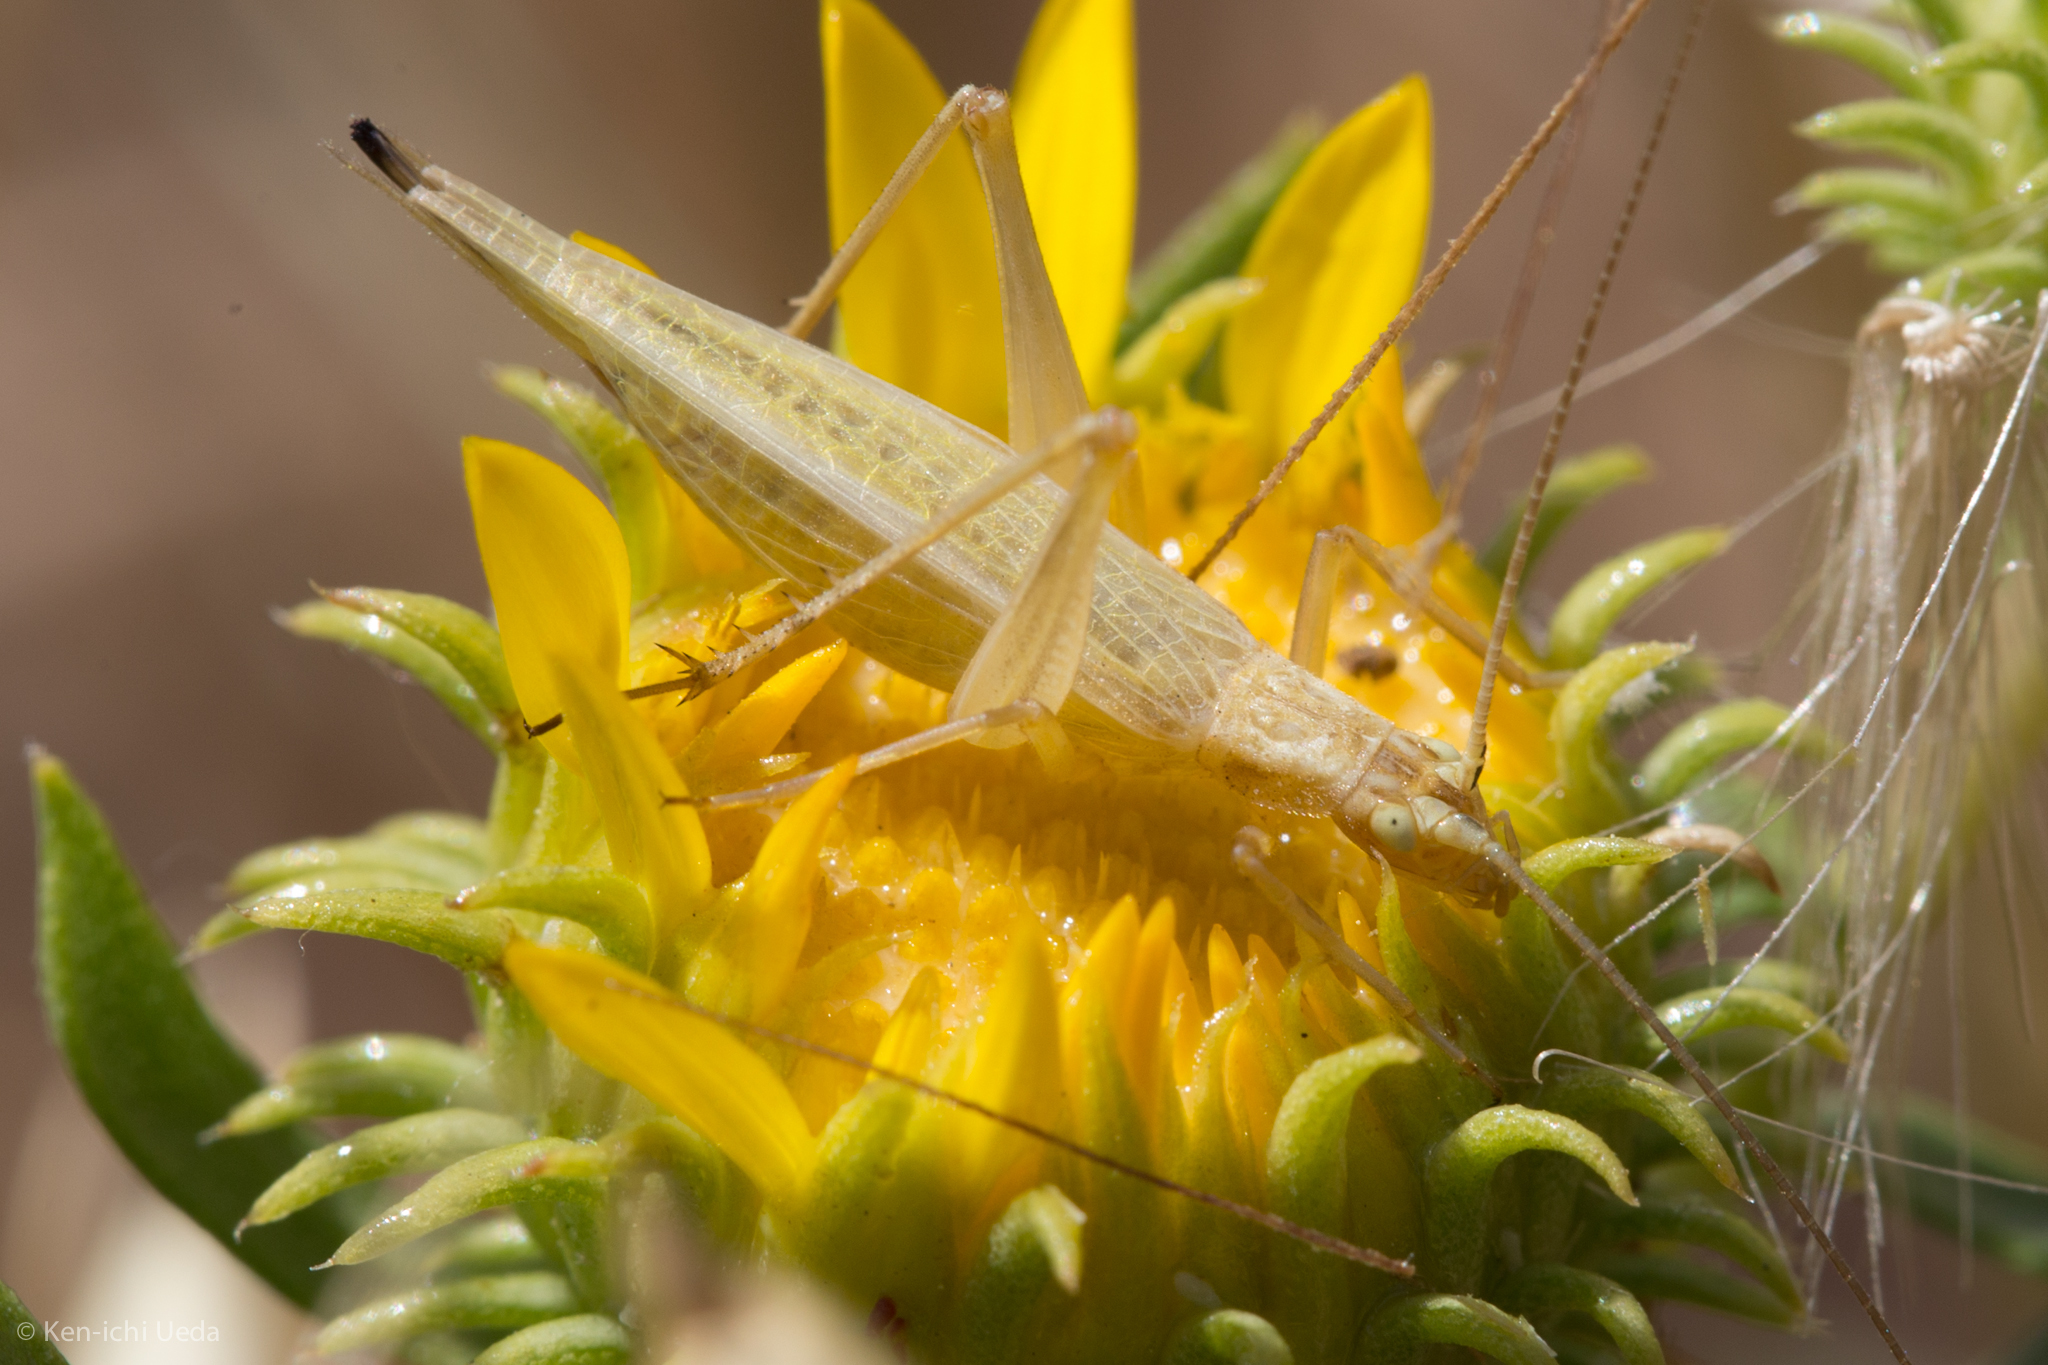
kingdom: Animalia
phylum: Arthropoda
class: Insecta
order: Orthoptera
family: Gryllidae
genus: Oecanthus
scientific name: Oecanthus californicus
